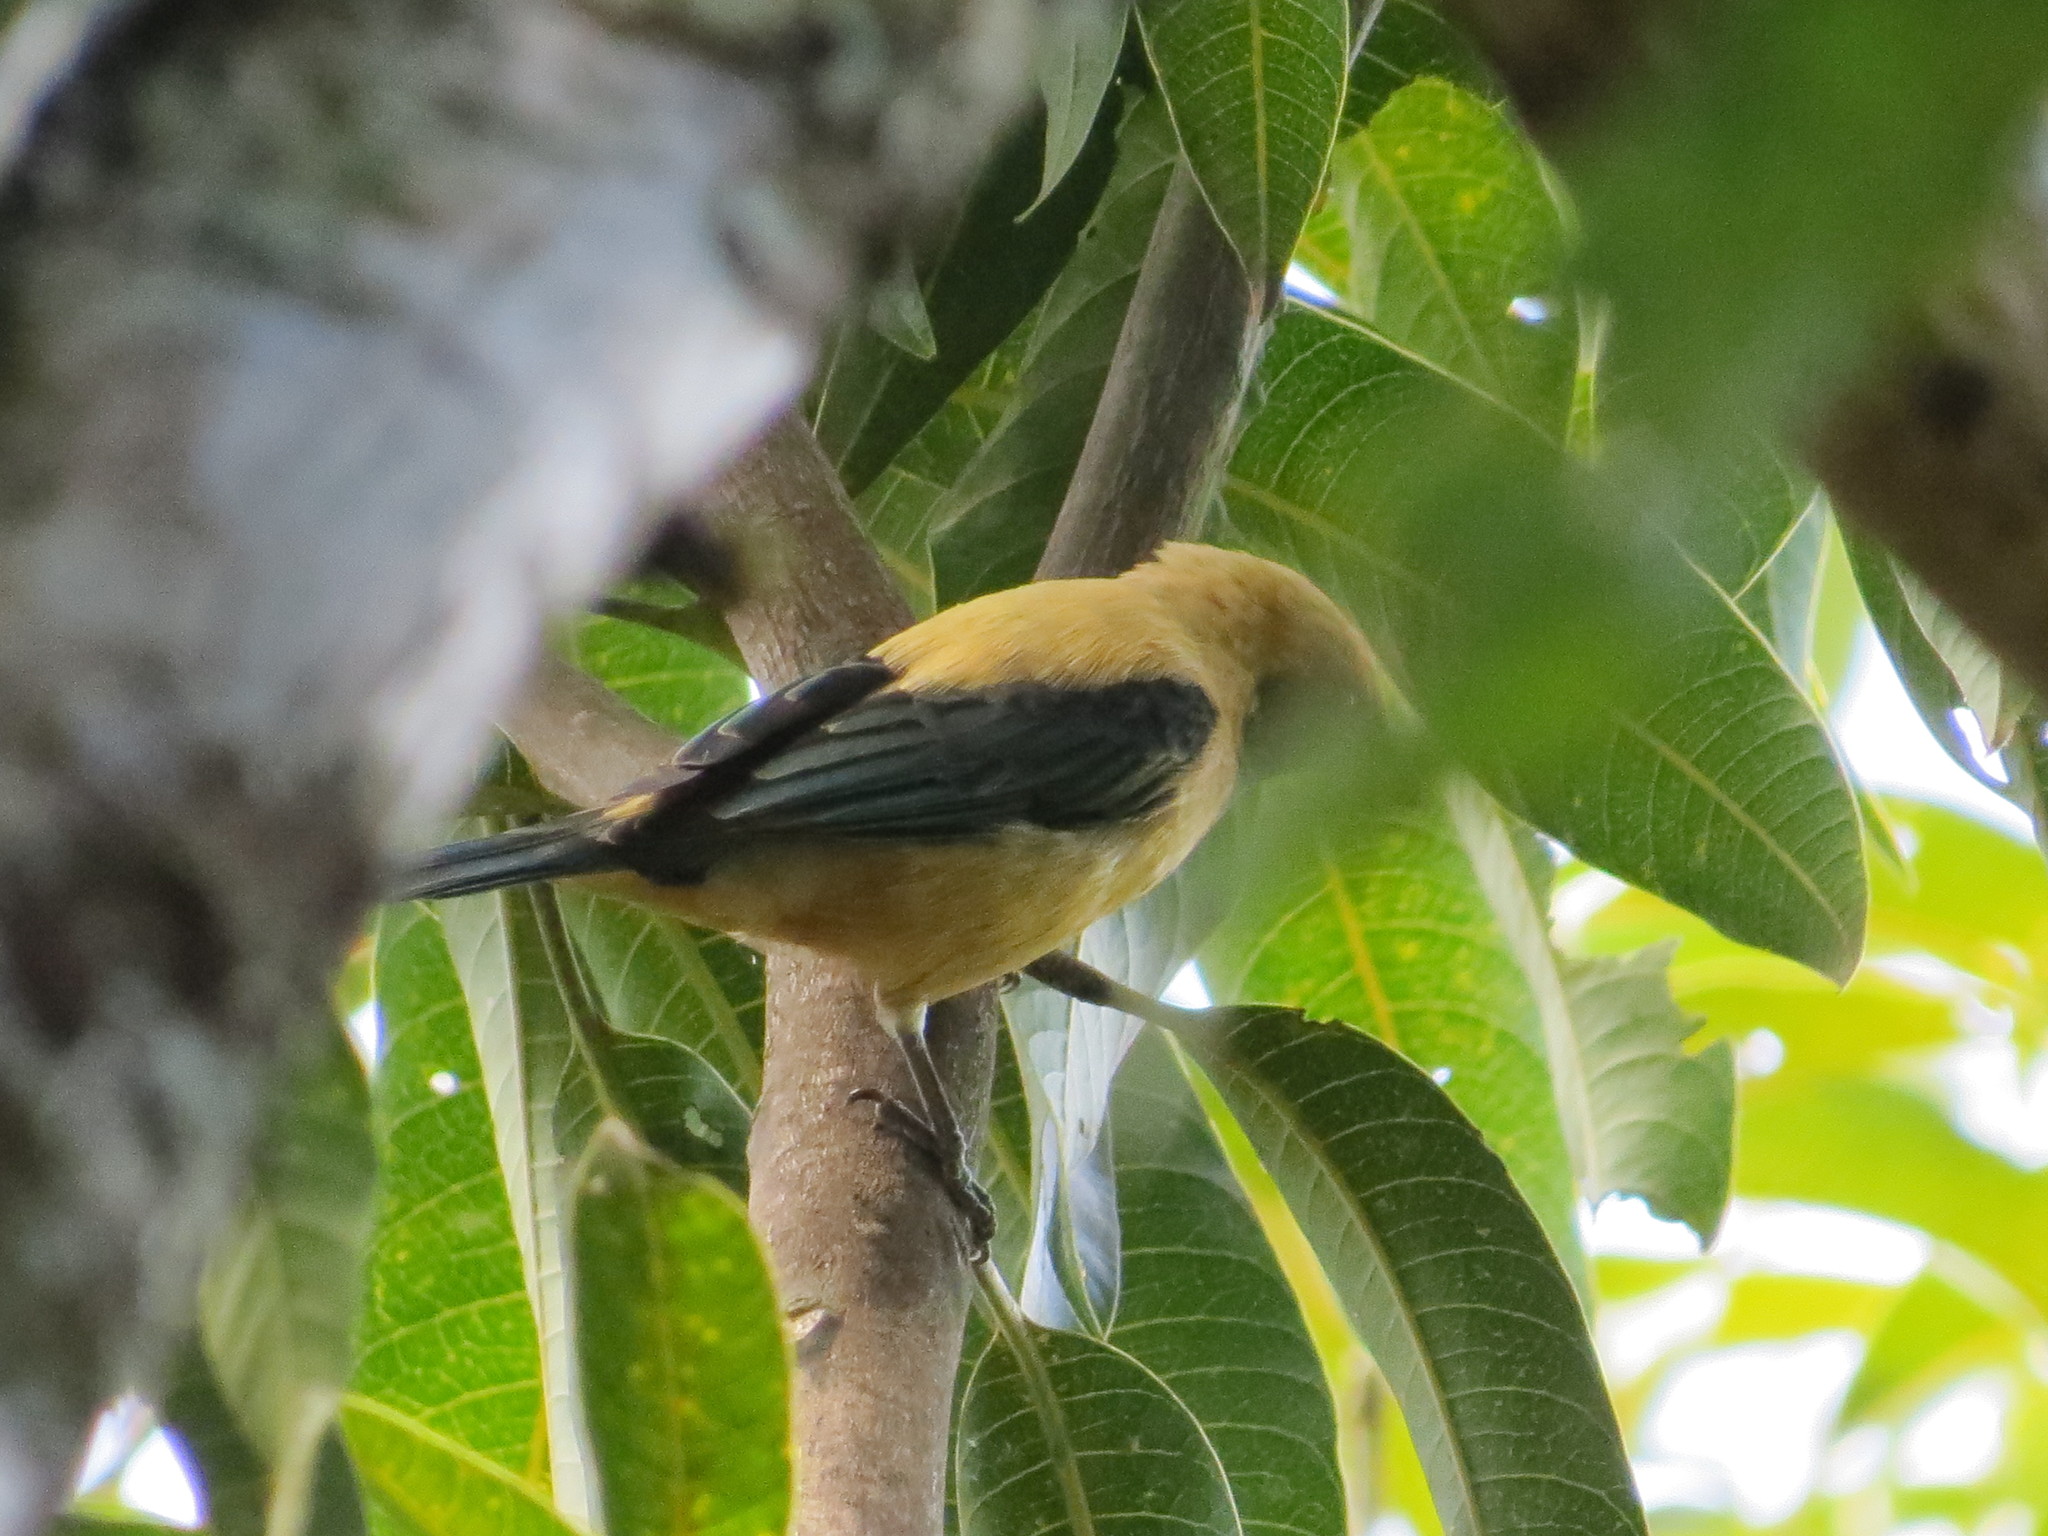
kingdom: Animalia
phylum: Chordata
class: Aves
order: Passeriformes
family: Thraupidae
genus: Stilpnia
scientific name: Stilpnia cayana
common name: Burnished-buff tanager
